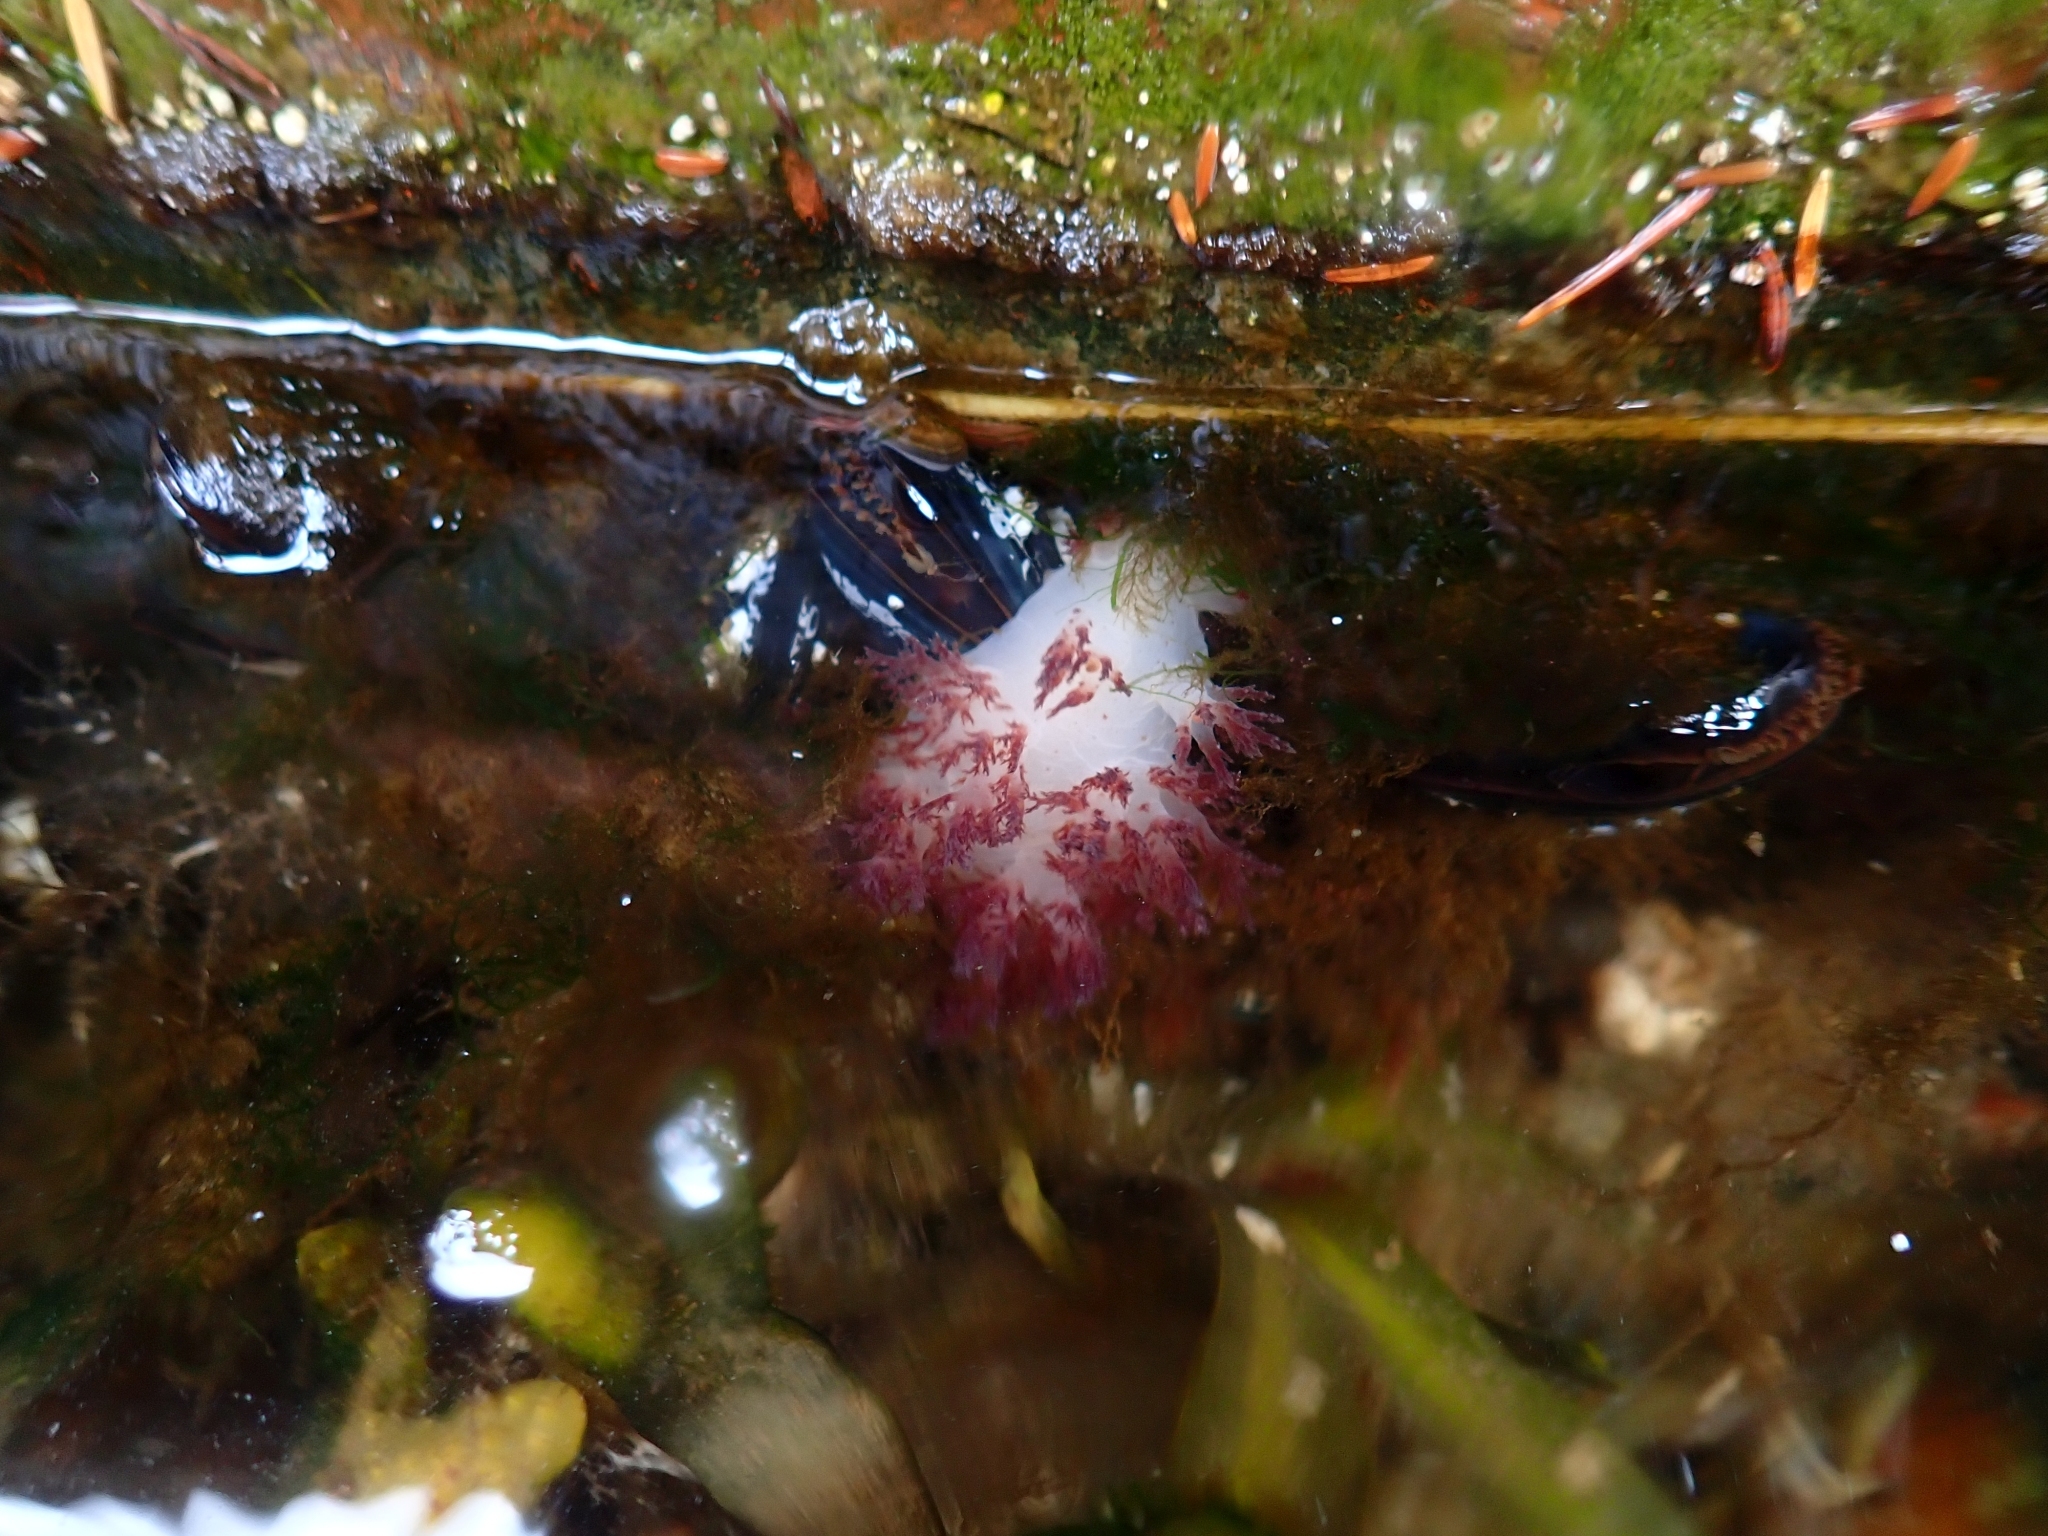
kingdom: Animalia
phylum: Mollusca
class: Gastropoda
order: Nudibranchia
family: Dendronotidae
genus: Dendronotus
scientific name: Dendronotus rufus
